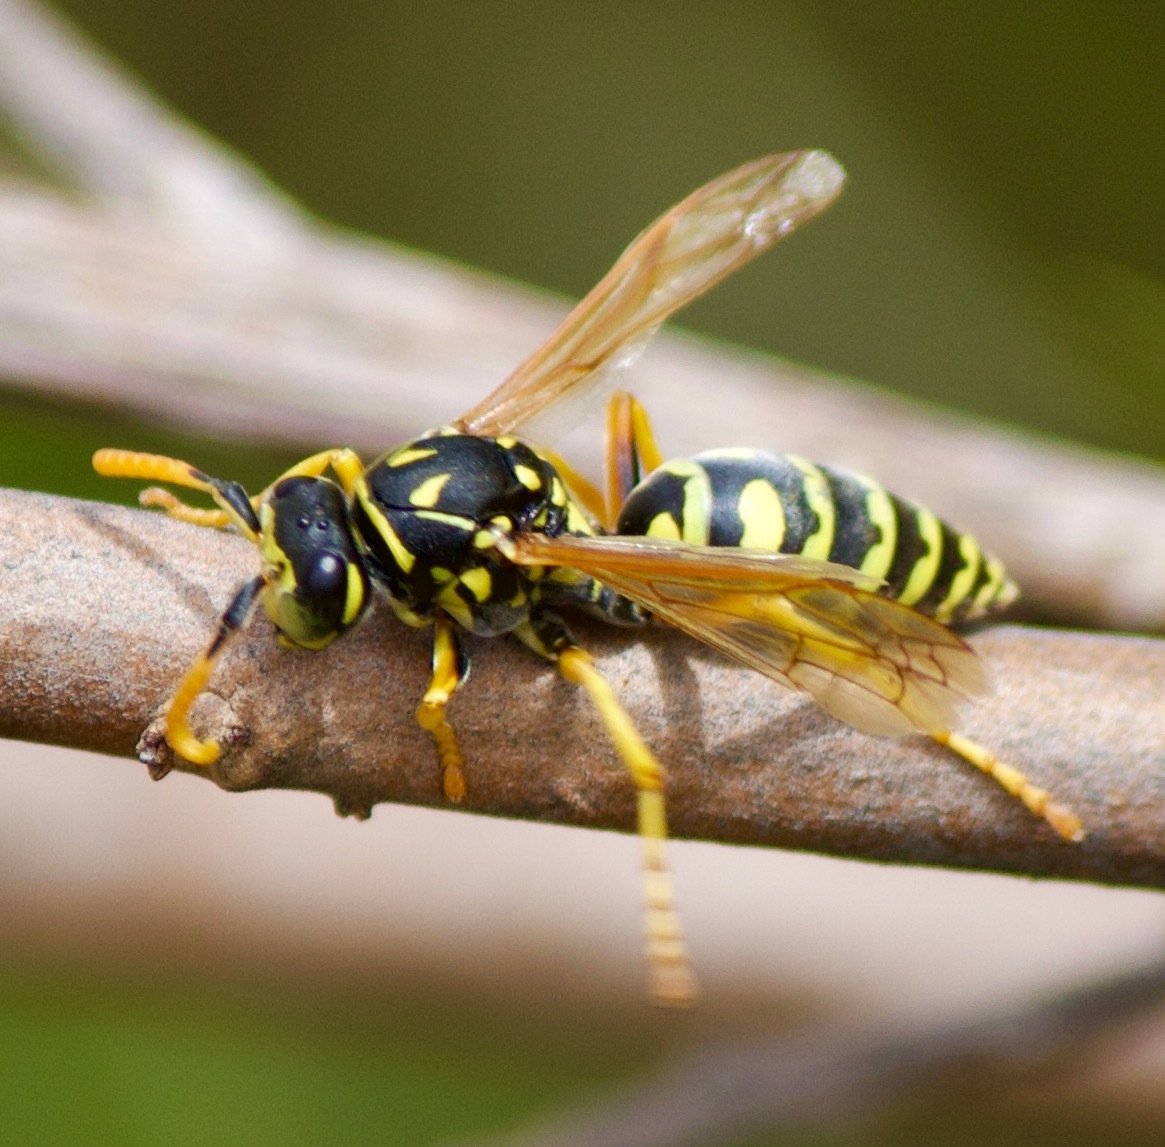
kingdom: Animalia
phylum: Arthropoda
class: Insecta
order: Hymenoptera
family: Eumenidae
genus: Polistes
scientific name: Polistes dominula
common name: Paper wasp
